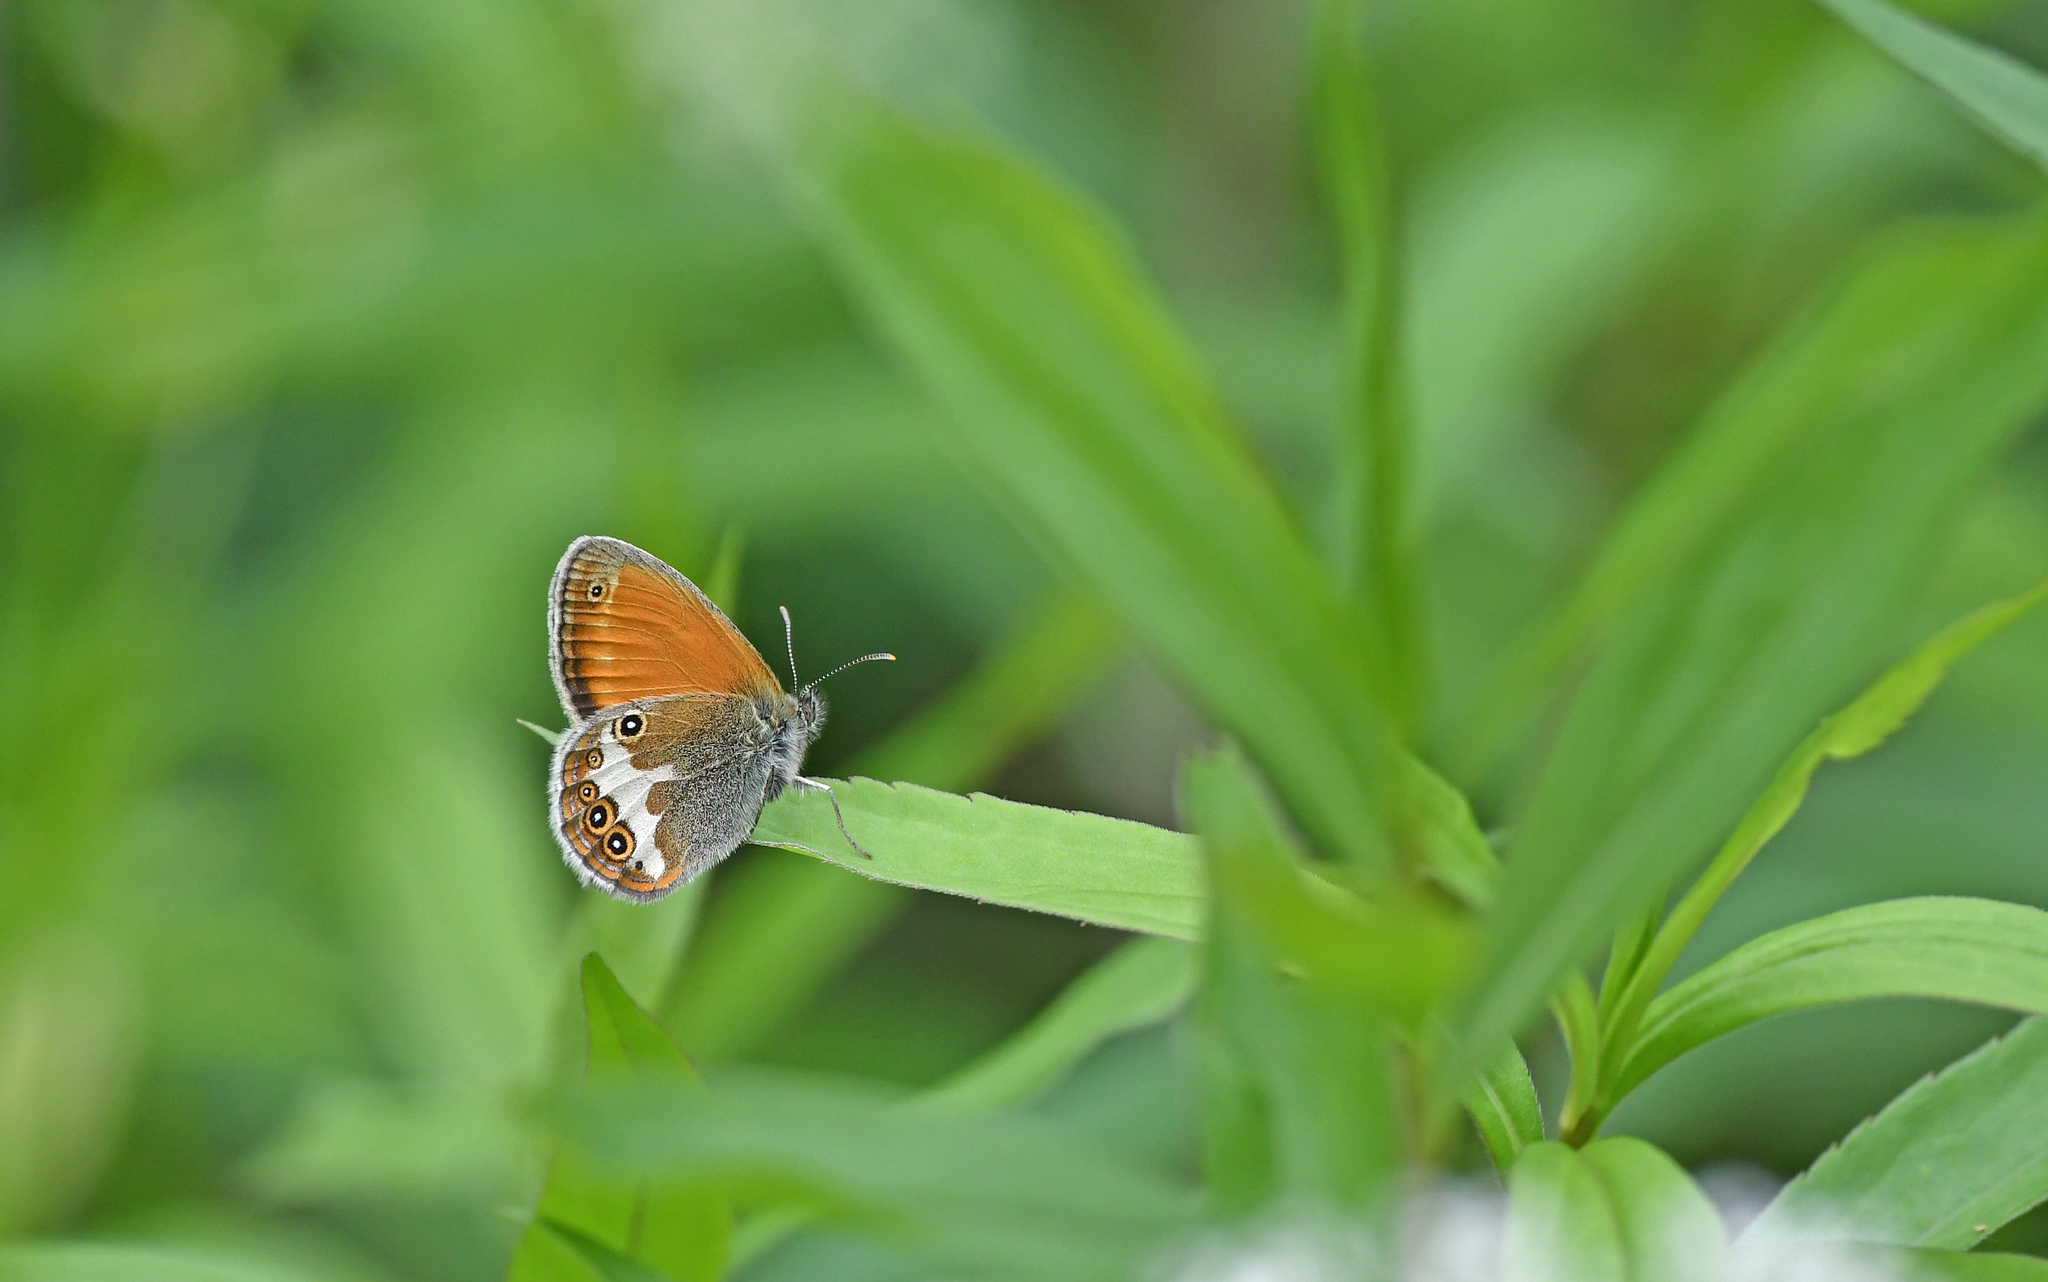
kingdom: Animalia
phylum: Arthropoda
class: Insecta
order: Lepidoptera
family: Nymphalidae
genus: Coenonympha
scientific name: Coenonympha arcania
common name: Pearly heath
